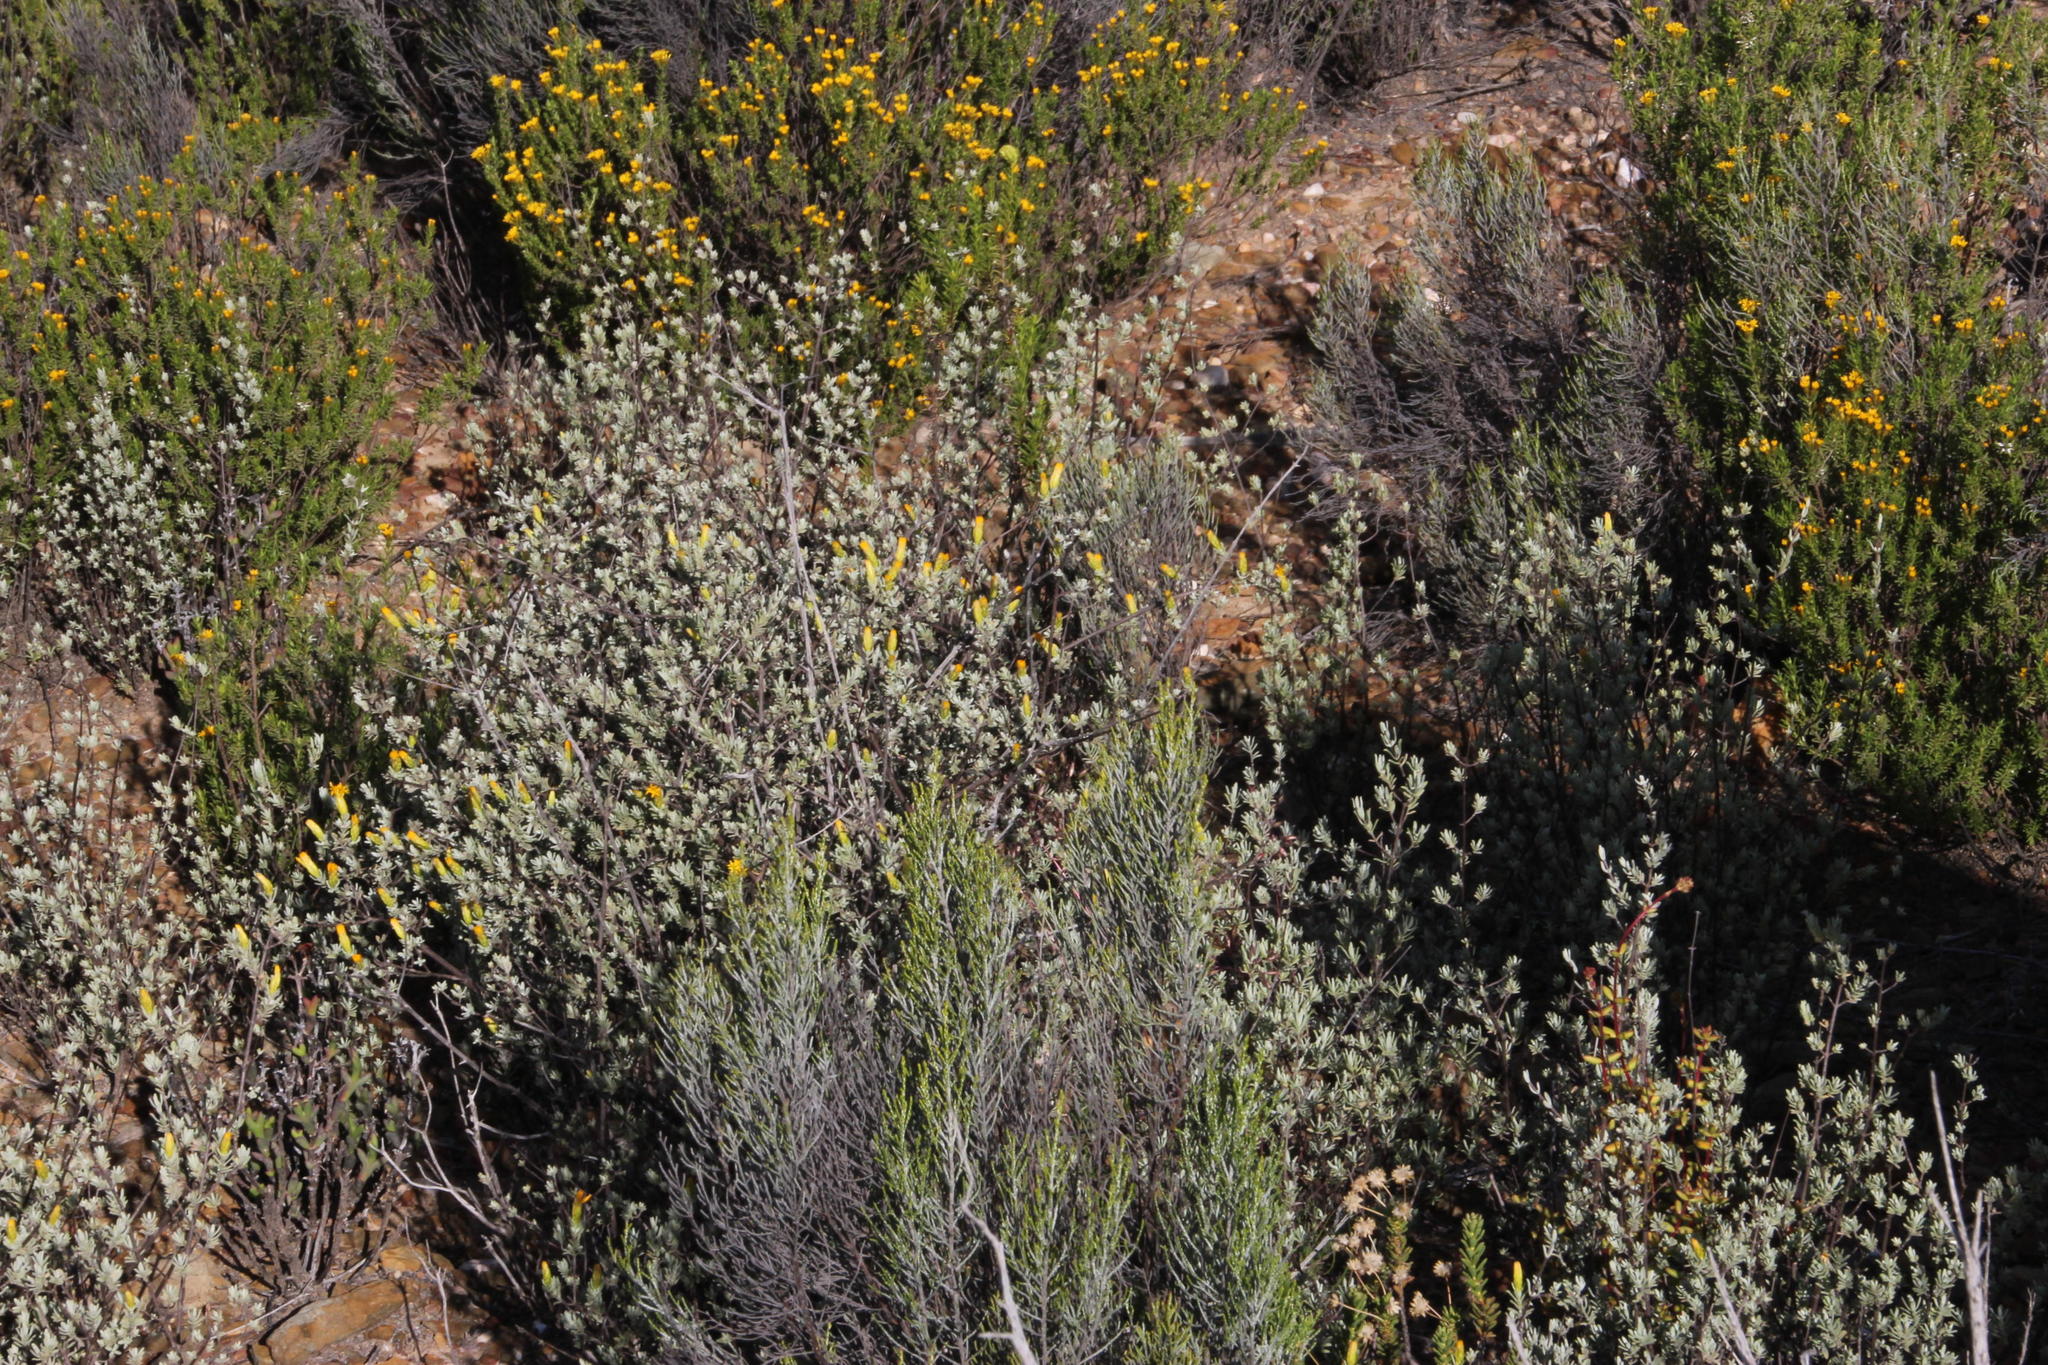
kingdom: Plantae
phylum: Tracheophyta
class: Magnoliopsida
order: Asterales
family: Asteraceae
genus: Pteronia
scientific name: Pteronia incana
